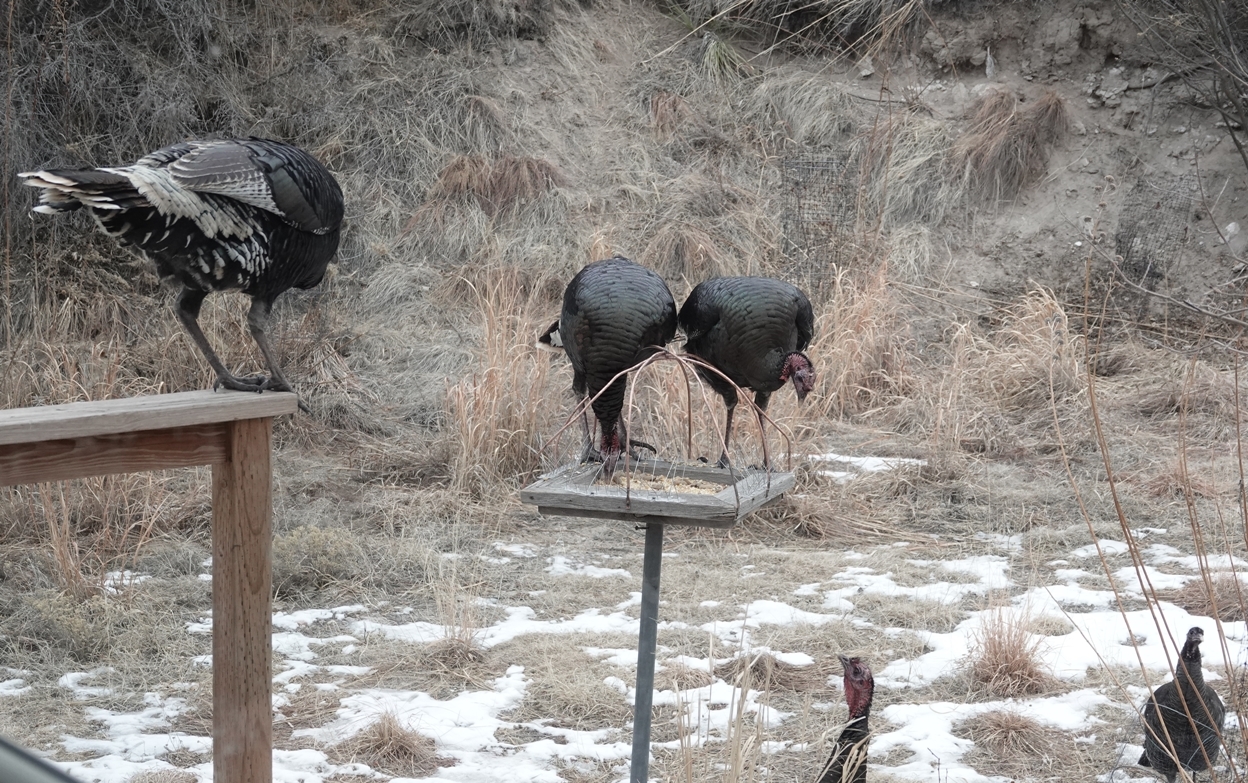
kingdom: Animalia
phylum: Chordata
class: Aves
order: Galliformes
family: Phasianidae
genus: Meleagris
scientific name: Meleagris gallopavo
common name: Wild turkey
